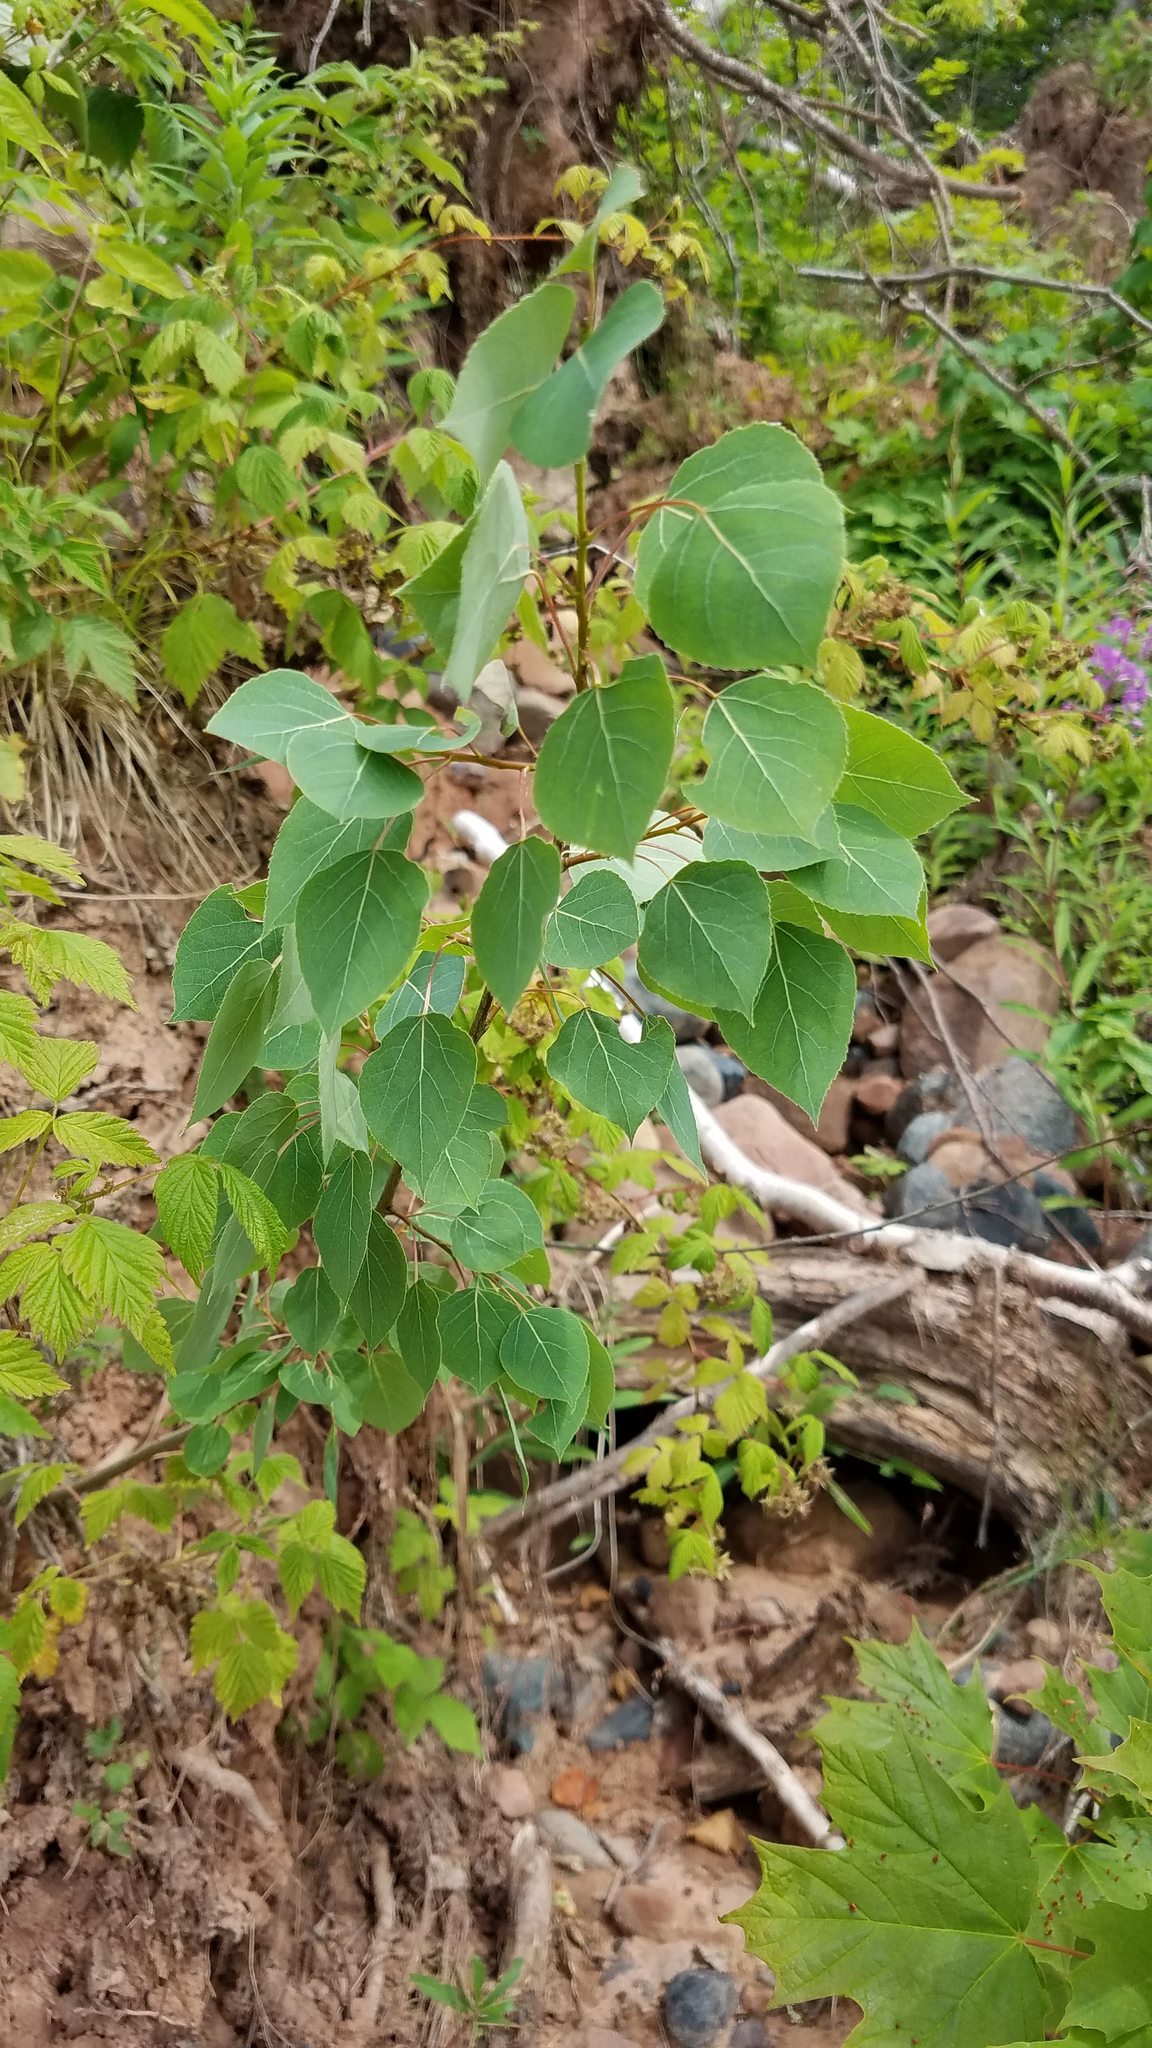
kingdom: Plantae
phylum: Tracheophyta
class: Magnoliopsida
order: Malpighiales
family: Salicaceae
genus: Populus
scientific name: Populus tremuloides
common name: Quaking aspen
